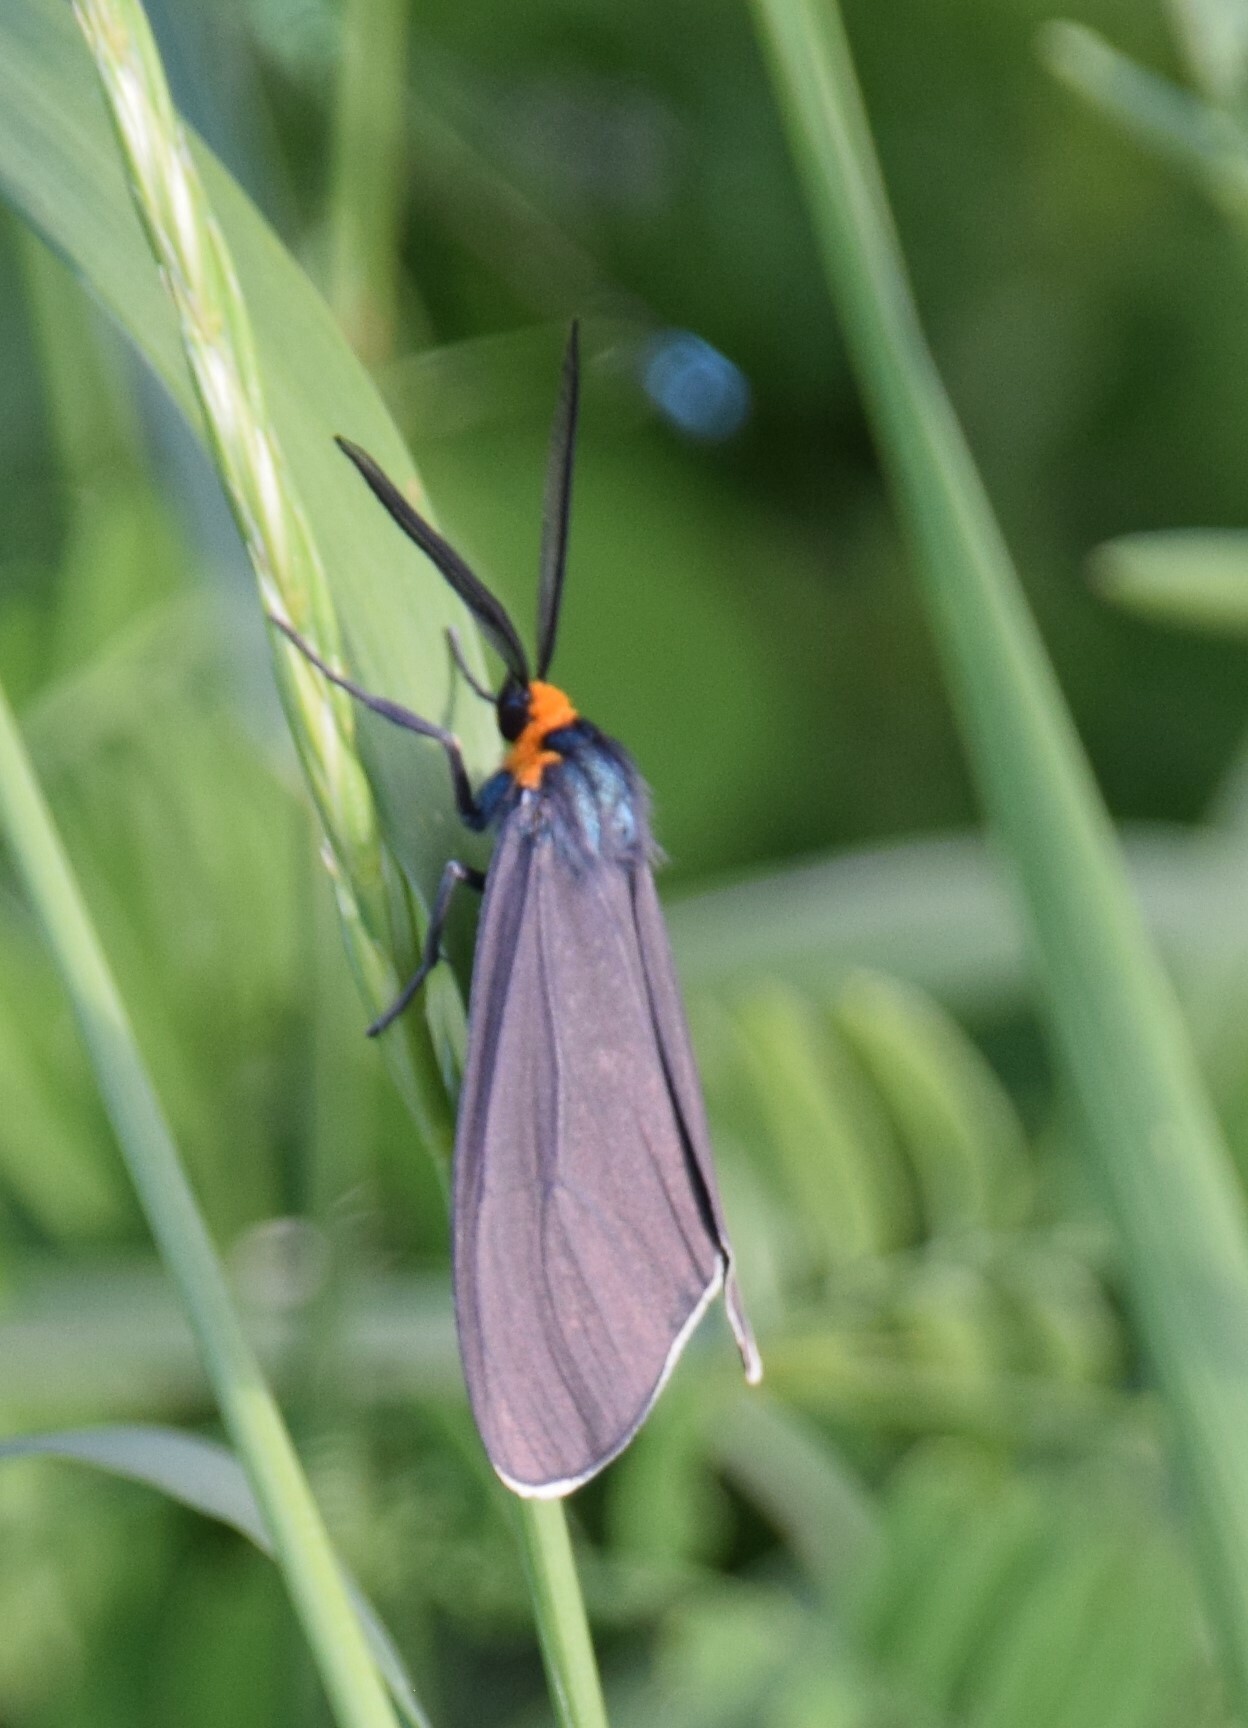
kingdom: Animalia
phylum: Arthropoda
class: Insecta
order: Lepidoptera
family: Erebidae
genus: Ctenucha
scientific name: Ctenucha virginica
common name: Virginia ctenucha moth
